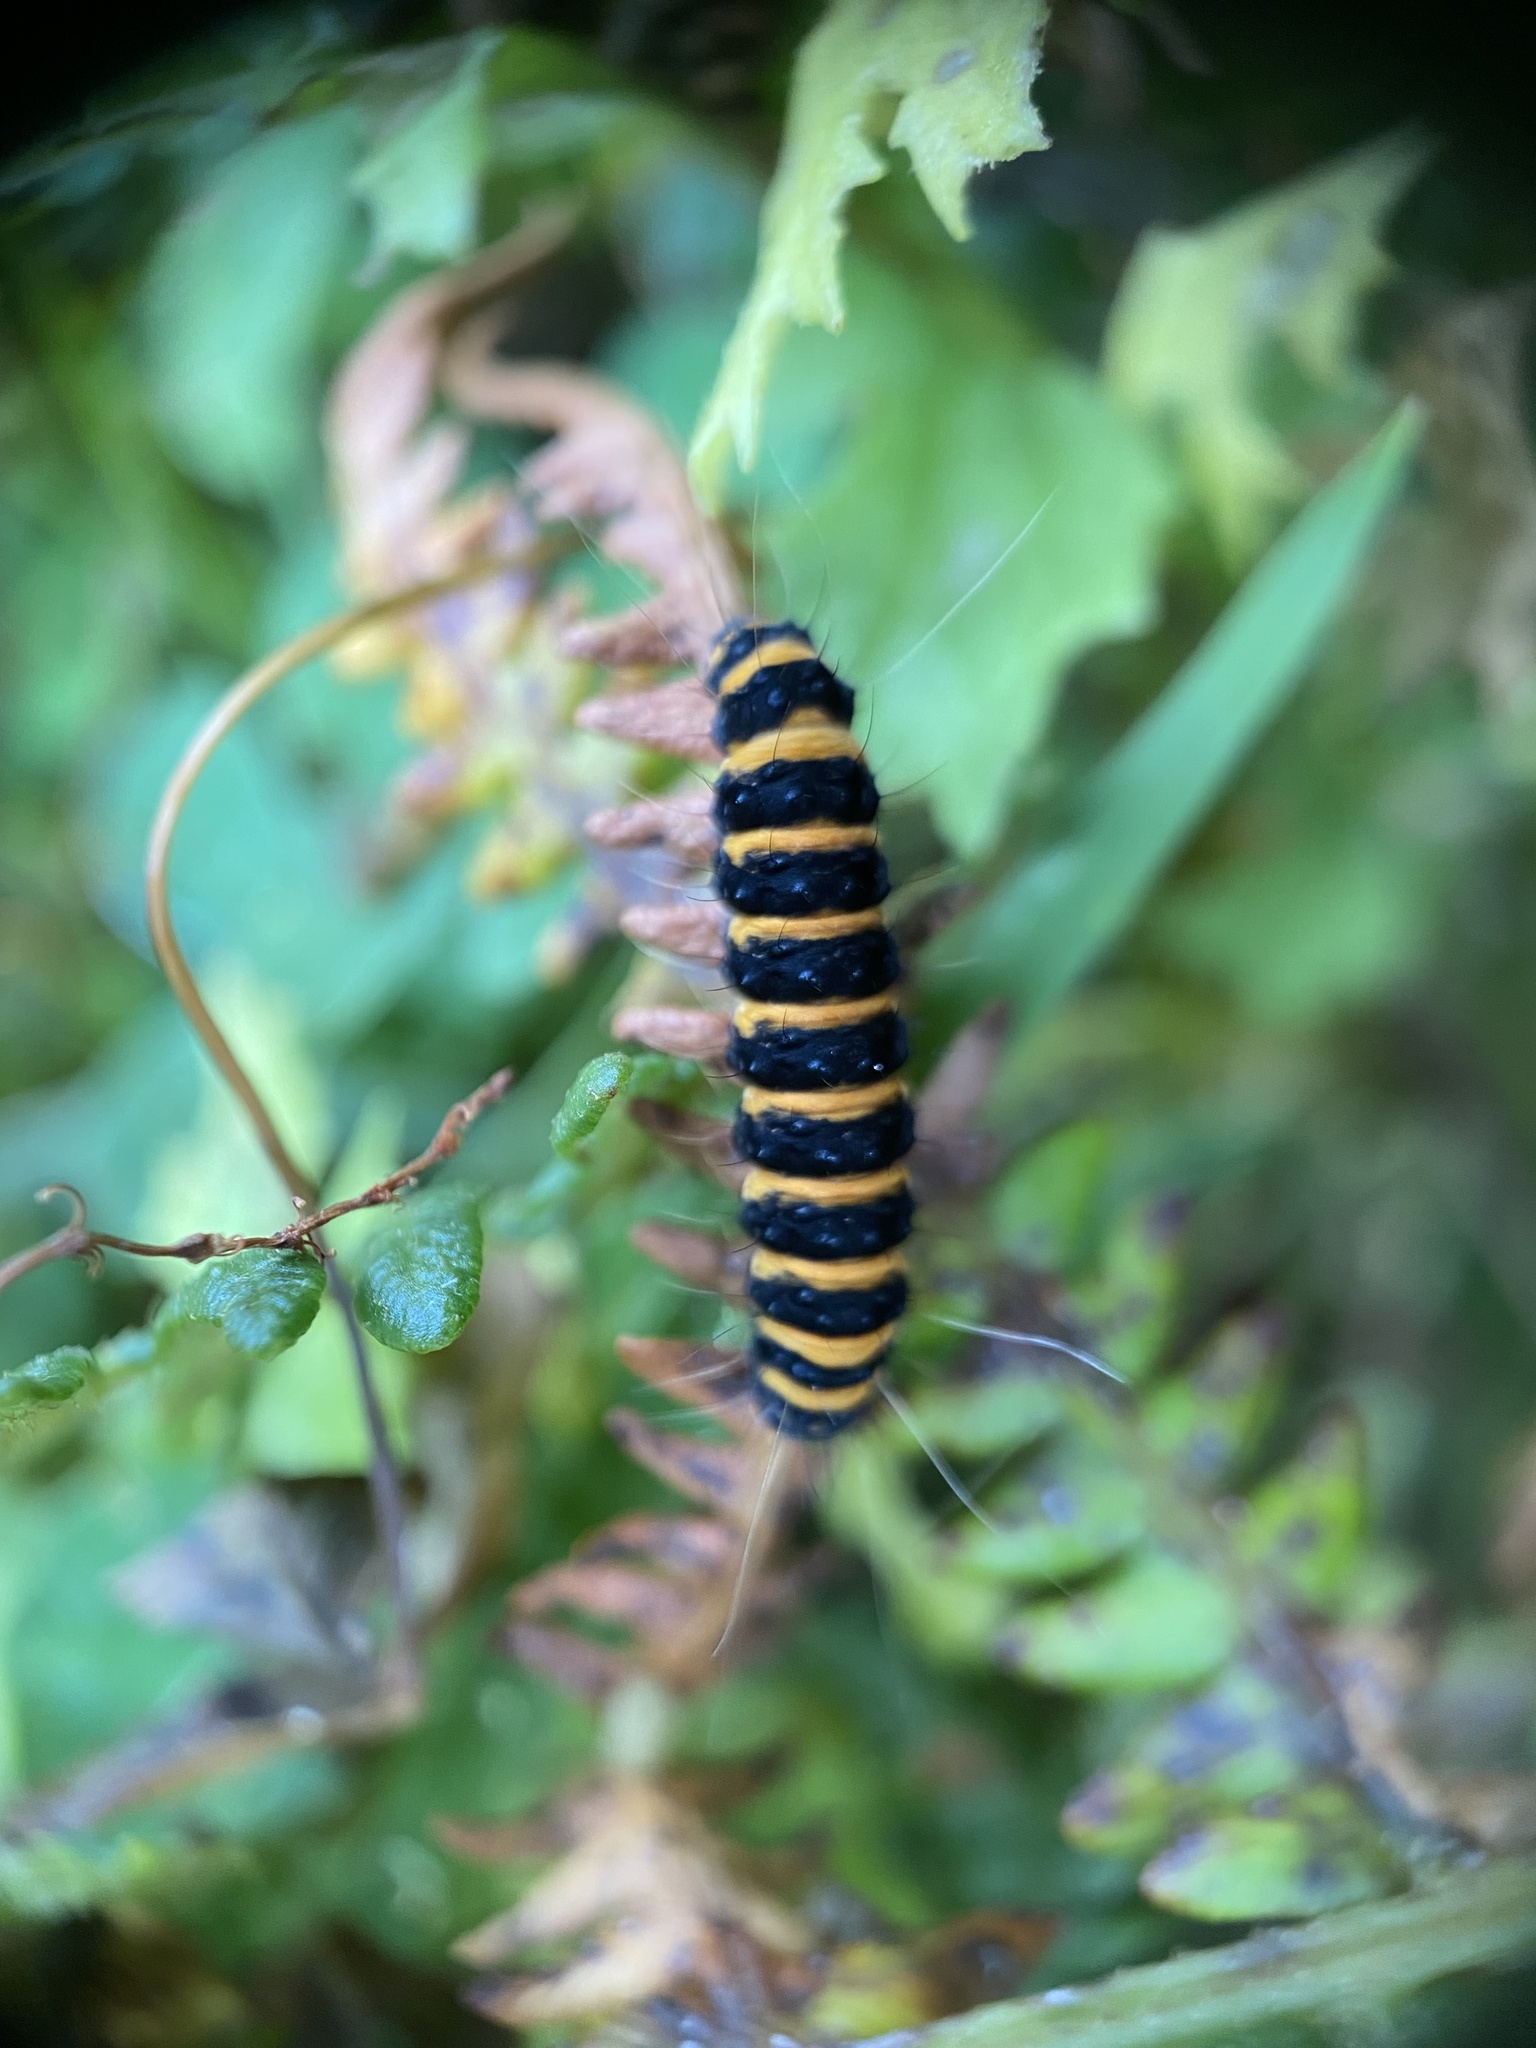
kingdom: Animalia
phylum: Arthropoda
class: Insecta
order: Lepidoptera
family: Erebidae
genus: Tyria
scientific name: Tyria jacobaeae
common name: Cinnabar
